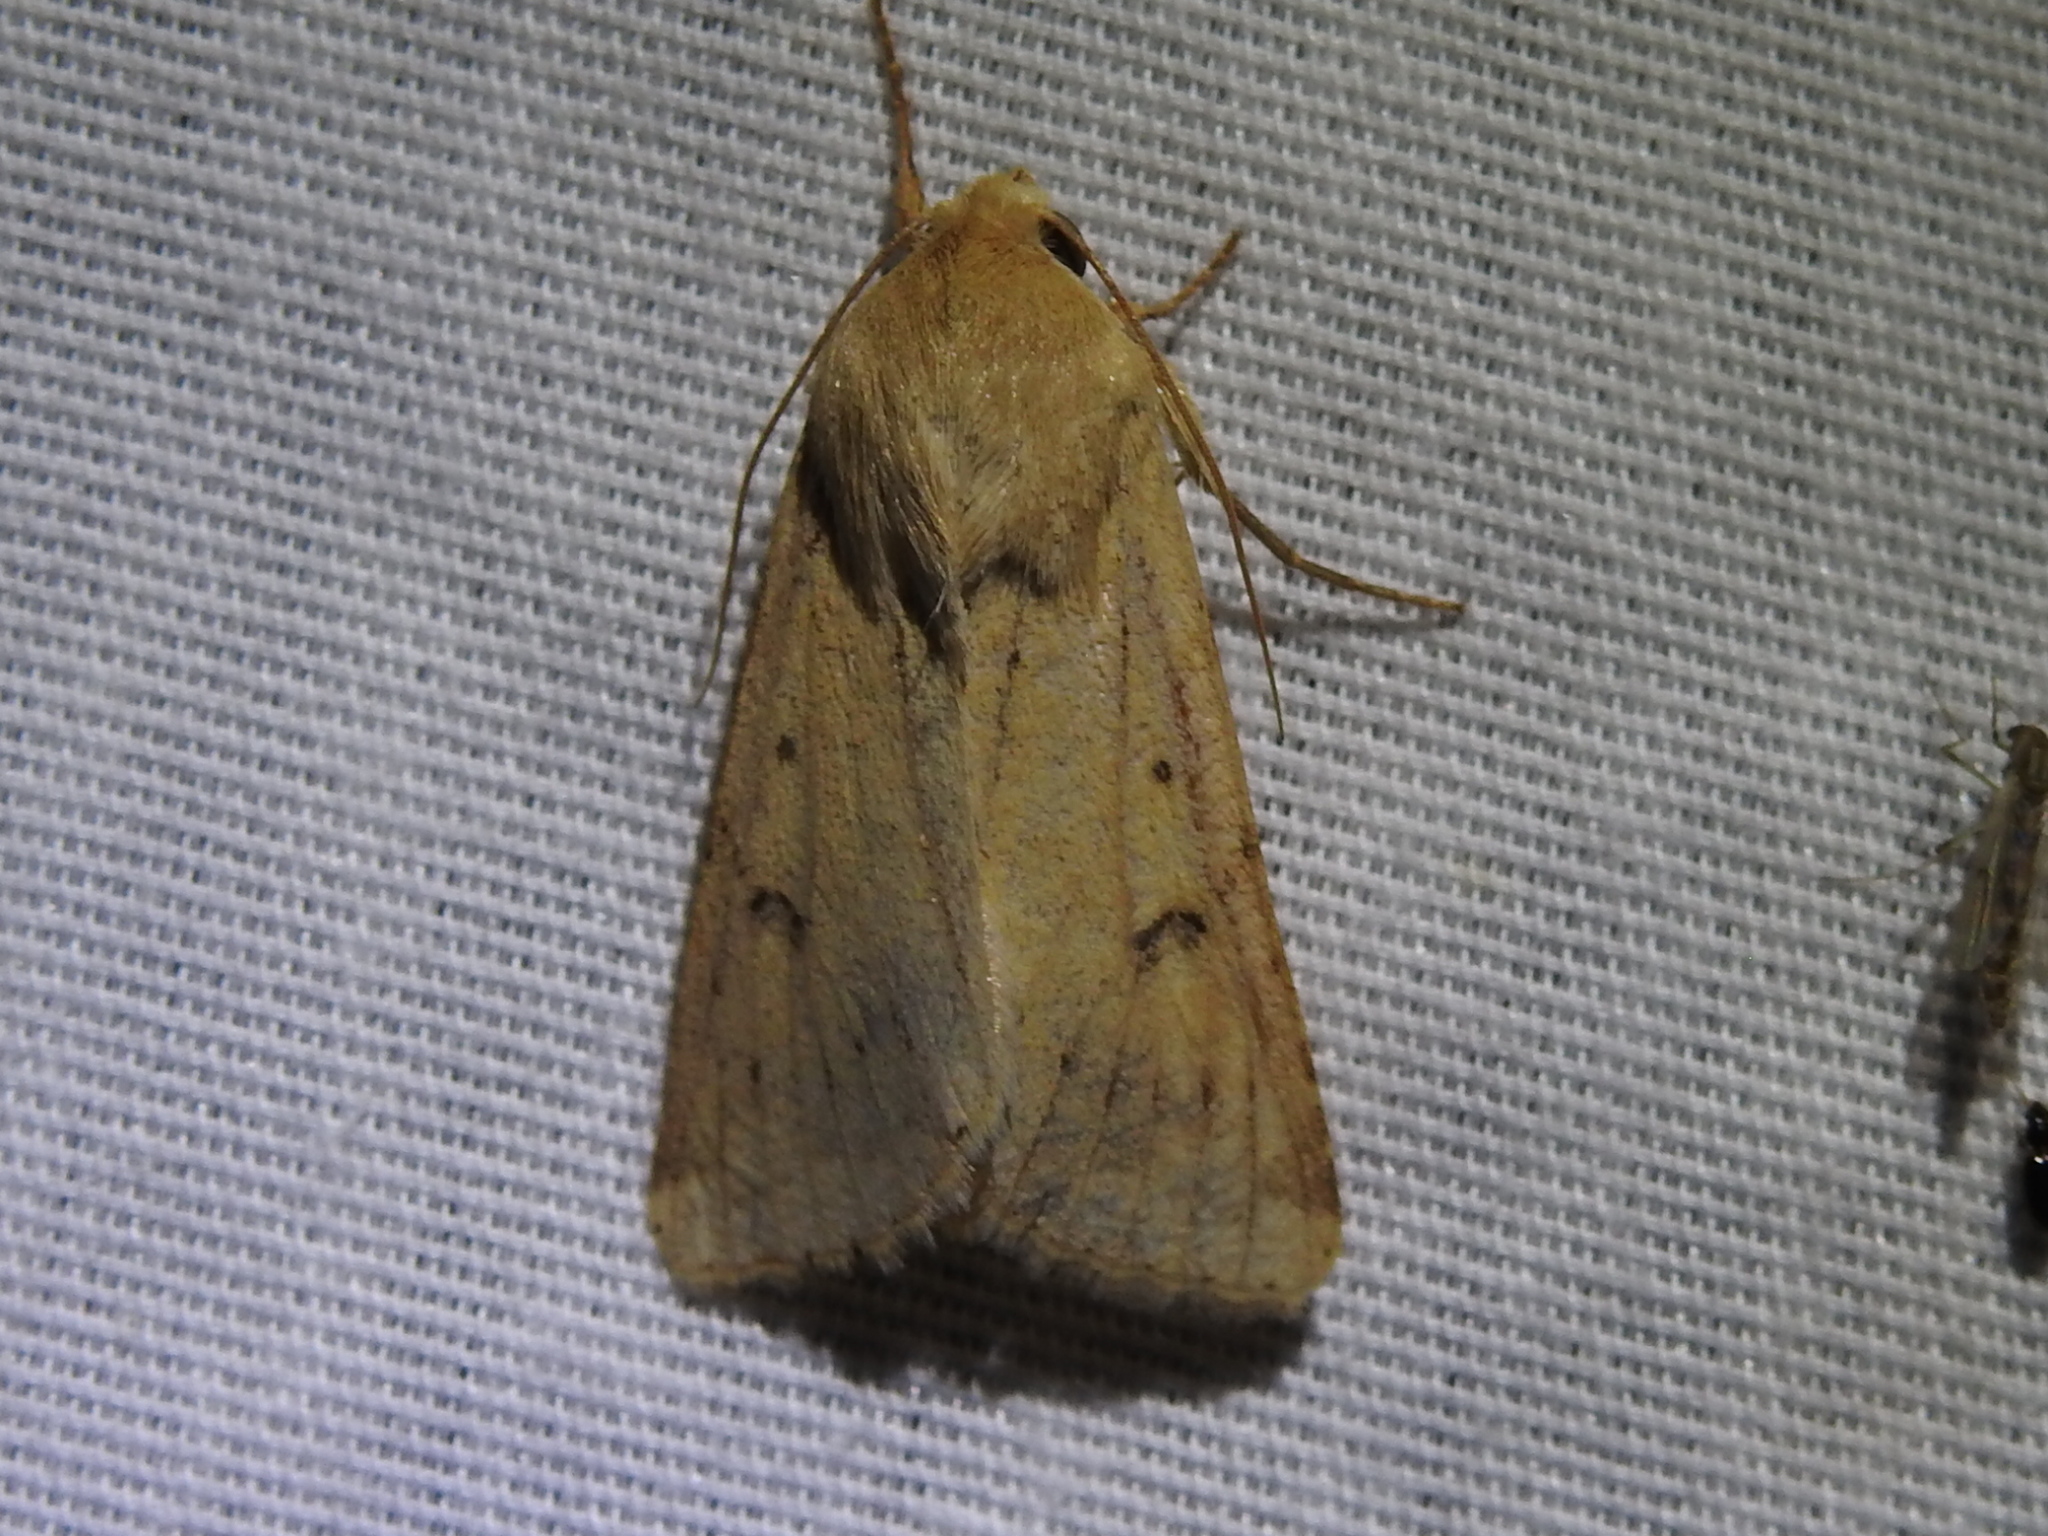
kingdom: Animalia
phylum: Arthropoda
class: Insecta
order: Lepidoptera
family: Noctuidae
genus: Helicoverpa
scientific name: Helicoverpa zea
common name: Bollworm
